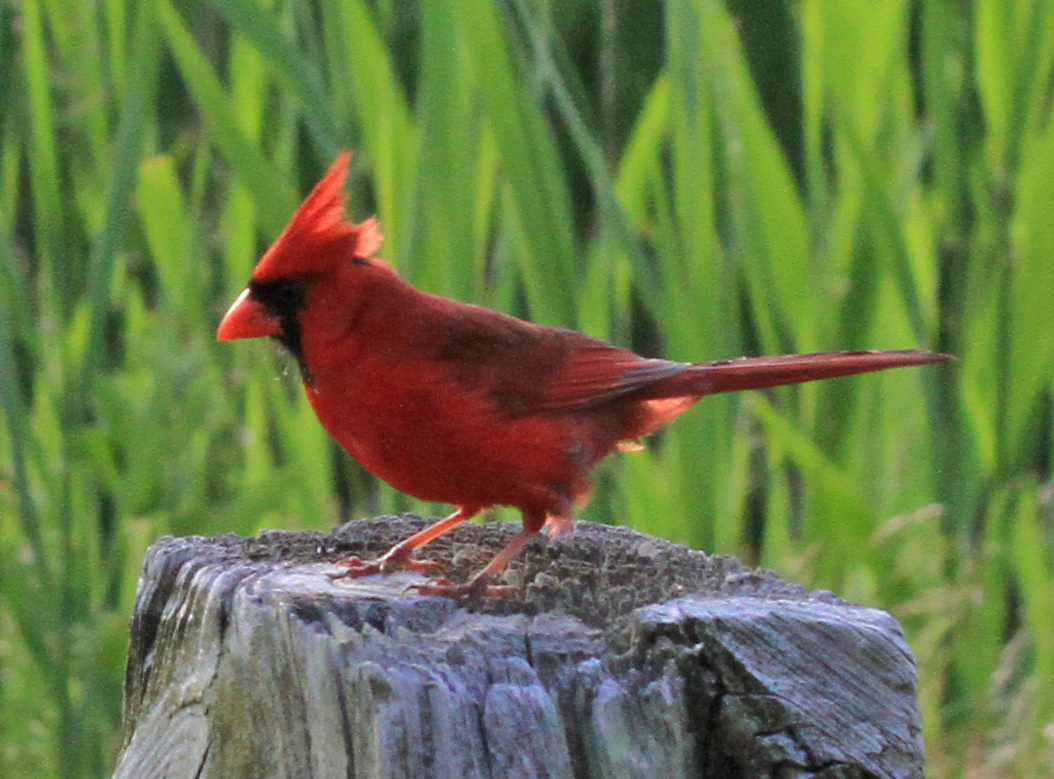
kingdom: Animalia
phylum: Chordata
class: Aves
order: Passeriformes
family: Cardinalidae
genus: Cardinalis
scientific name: Cardinalis cardinalis
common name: Northern cardinal
